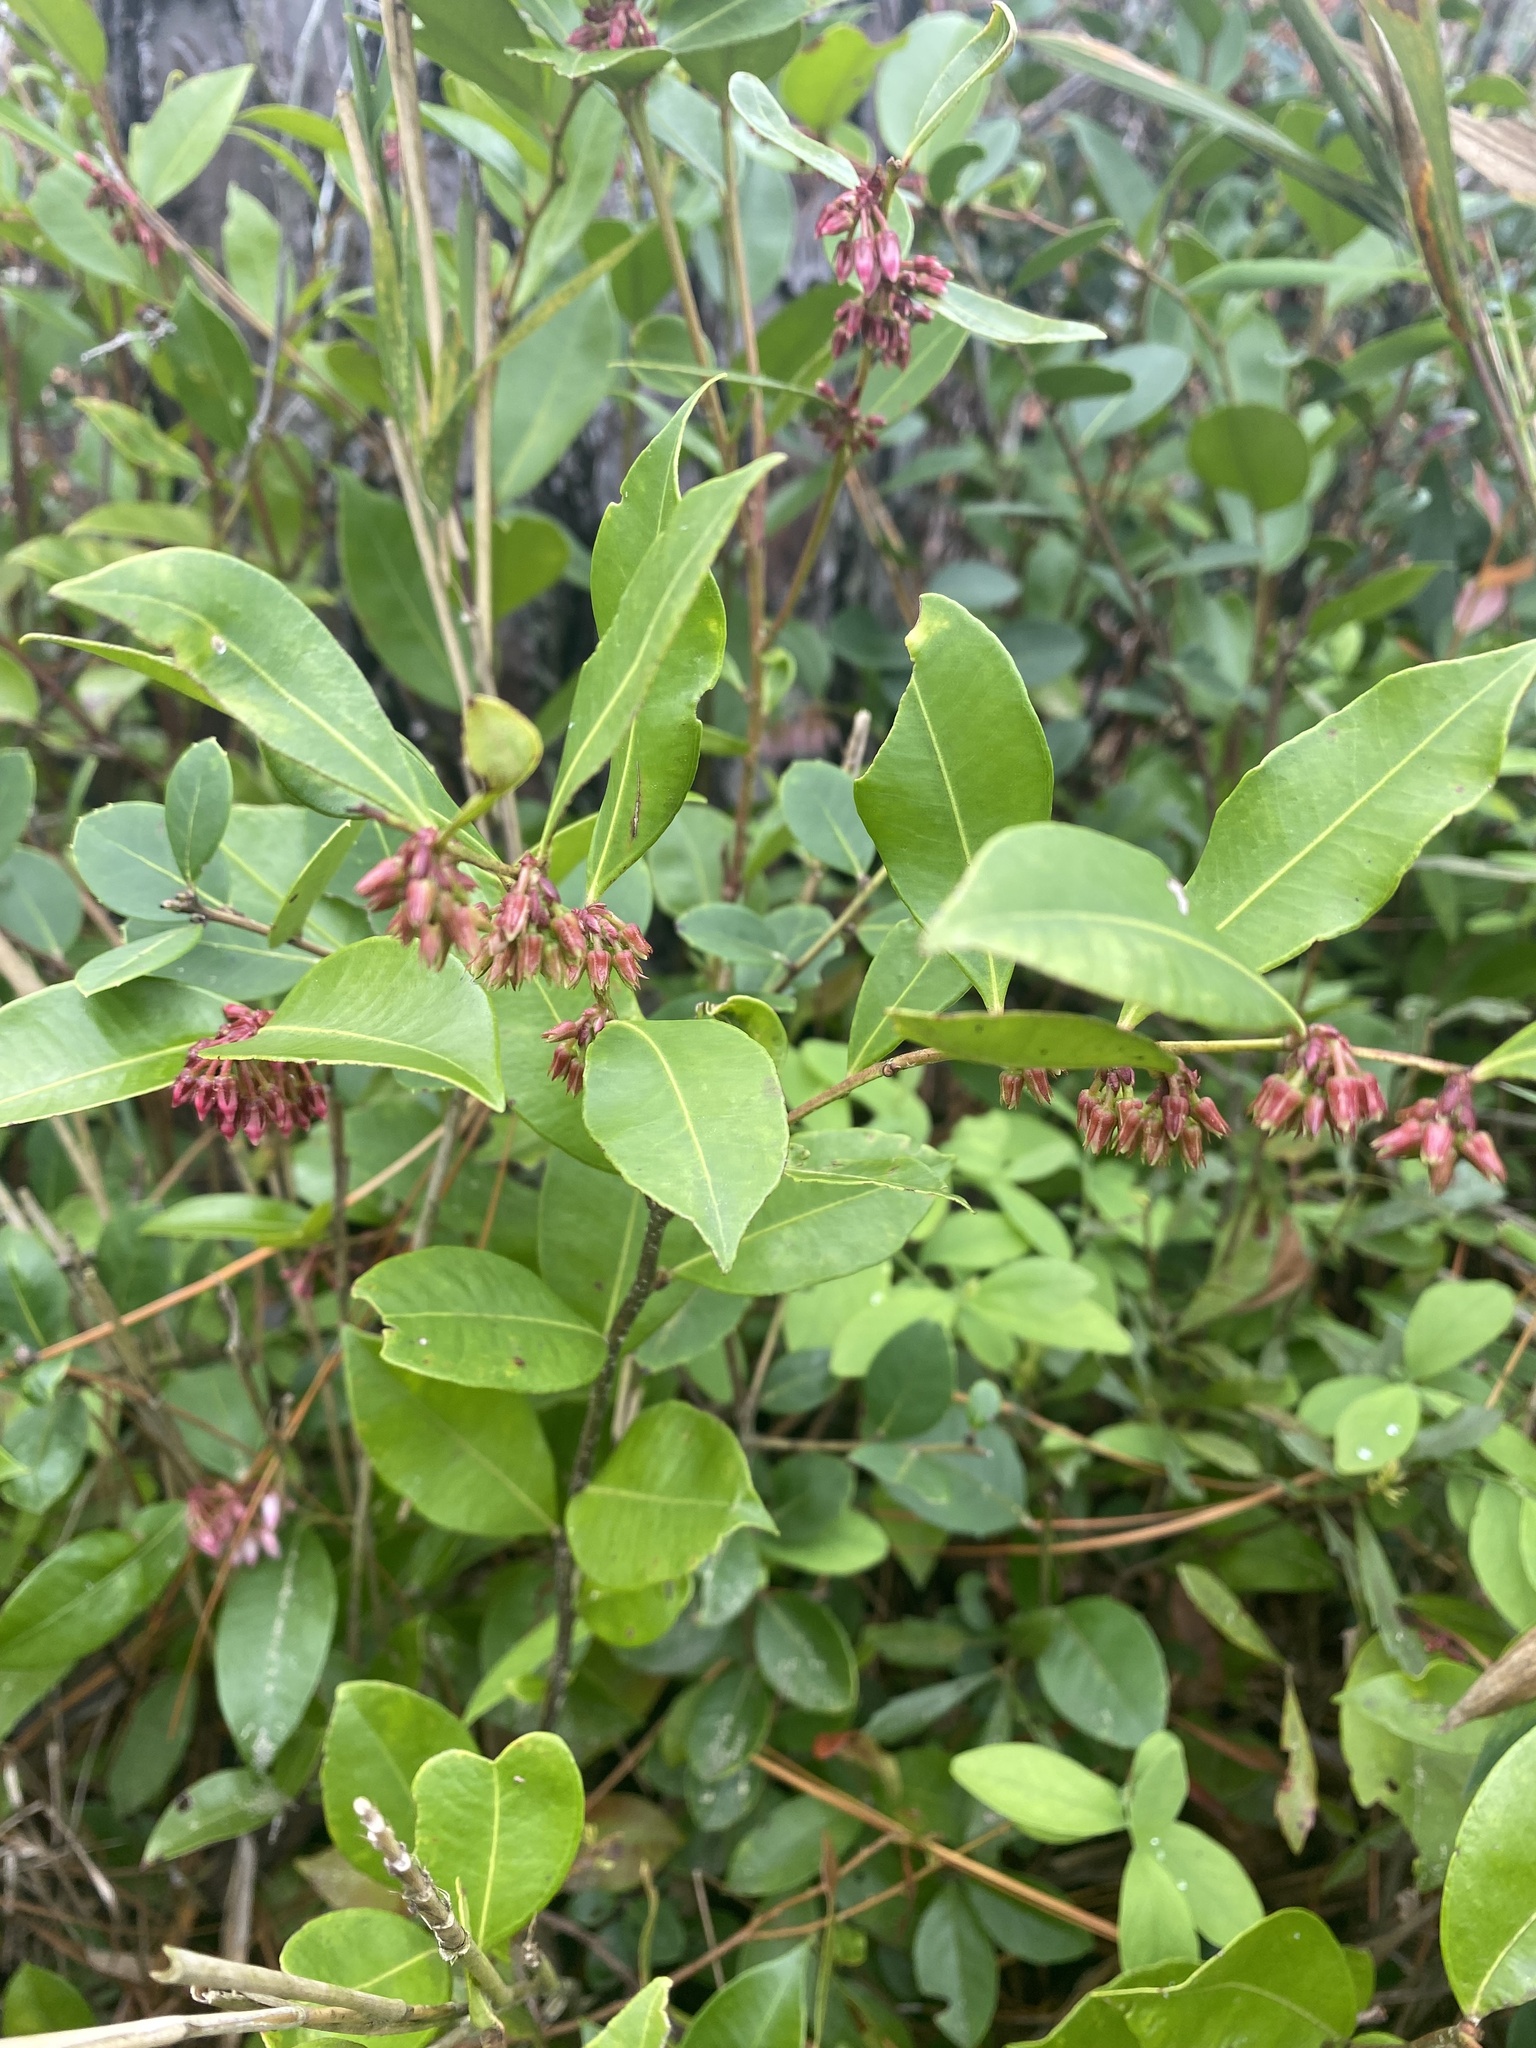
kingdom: Plantae
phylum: Tracheophyta
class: Magnoliopsida
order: Ericales
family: Ericaceae
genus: Lyonia
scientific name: Lyonia lucida
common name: Fetterbush
